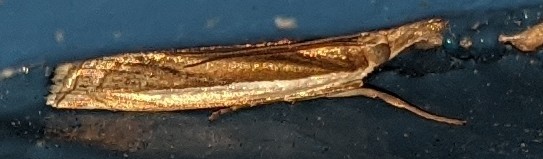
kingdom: Animalia
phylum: Arthropoda
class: Insecta
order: Lepidoptera
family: Crambidae
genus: Crambus
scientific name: Crambus leachellus
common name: Leach's grass-veneer
